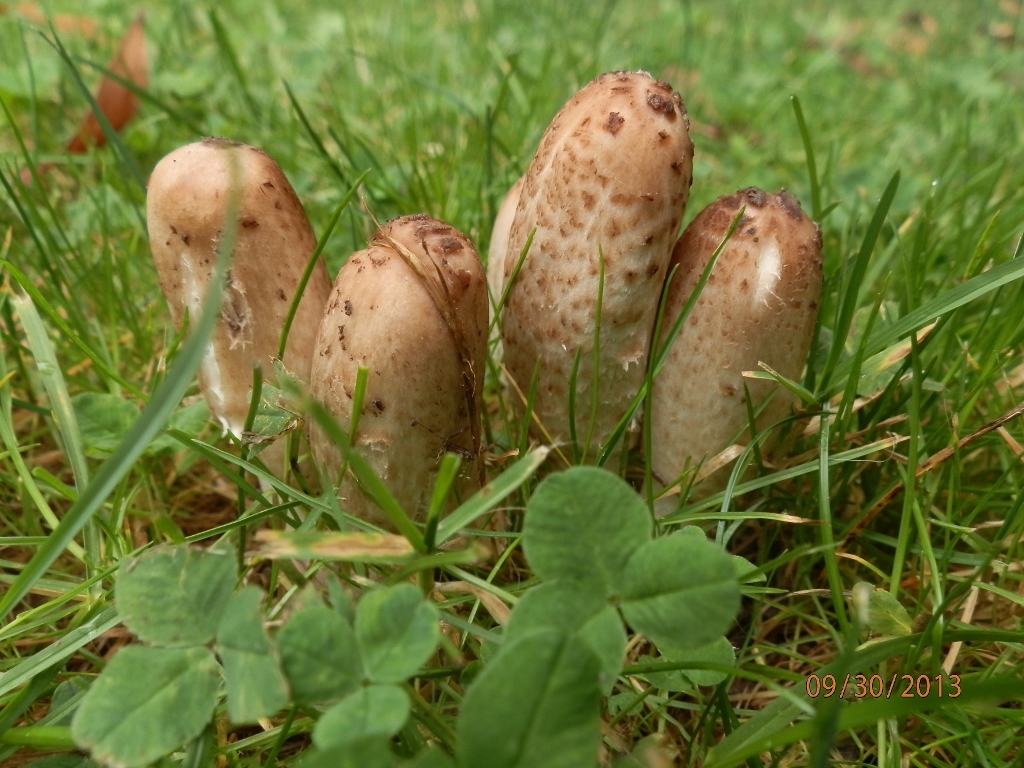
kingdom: Fungi
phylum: Basidiomycota
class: Agaricomycetes
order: Agaricales
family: Agaricaceae
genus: Coprinus
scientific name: Coprinus comatus
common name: Lawyer's wig
